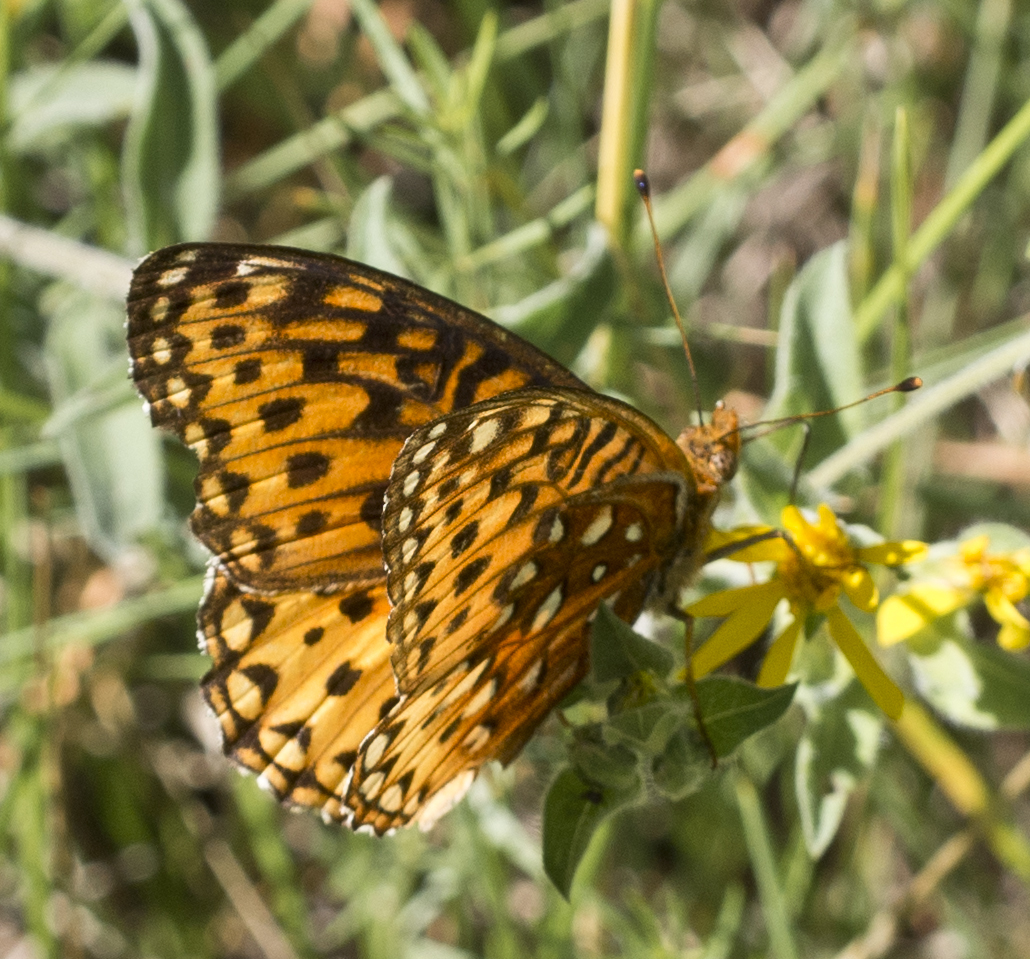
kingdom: Animalia
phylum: Arthropoda
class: Insecta
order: Lepidoptera
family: Nymphalidae
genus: Speyeria
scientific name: Speyeria atlantis
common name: Atlantis fritillary
